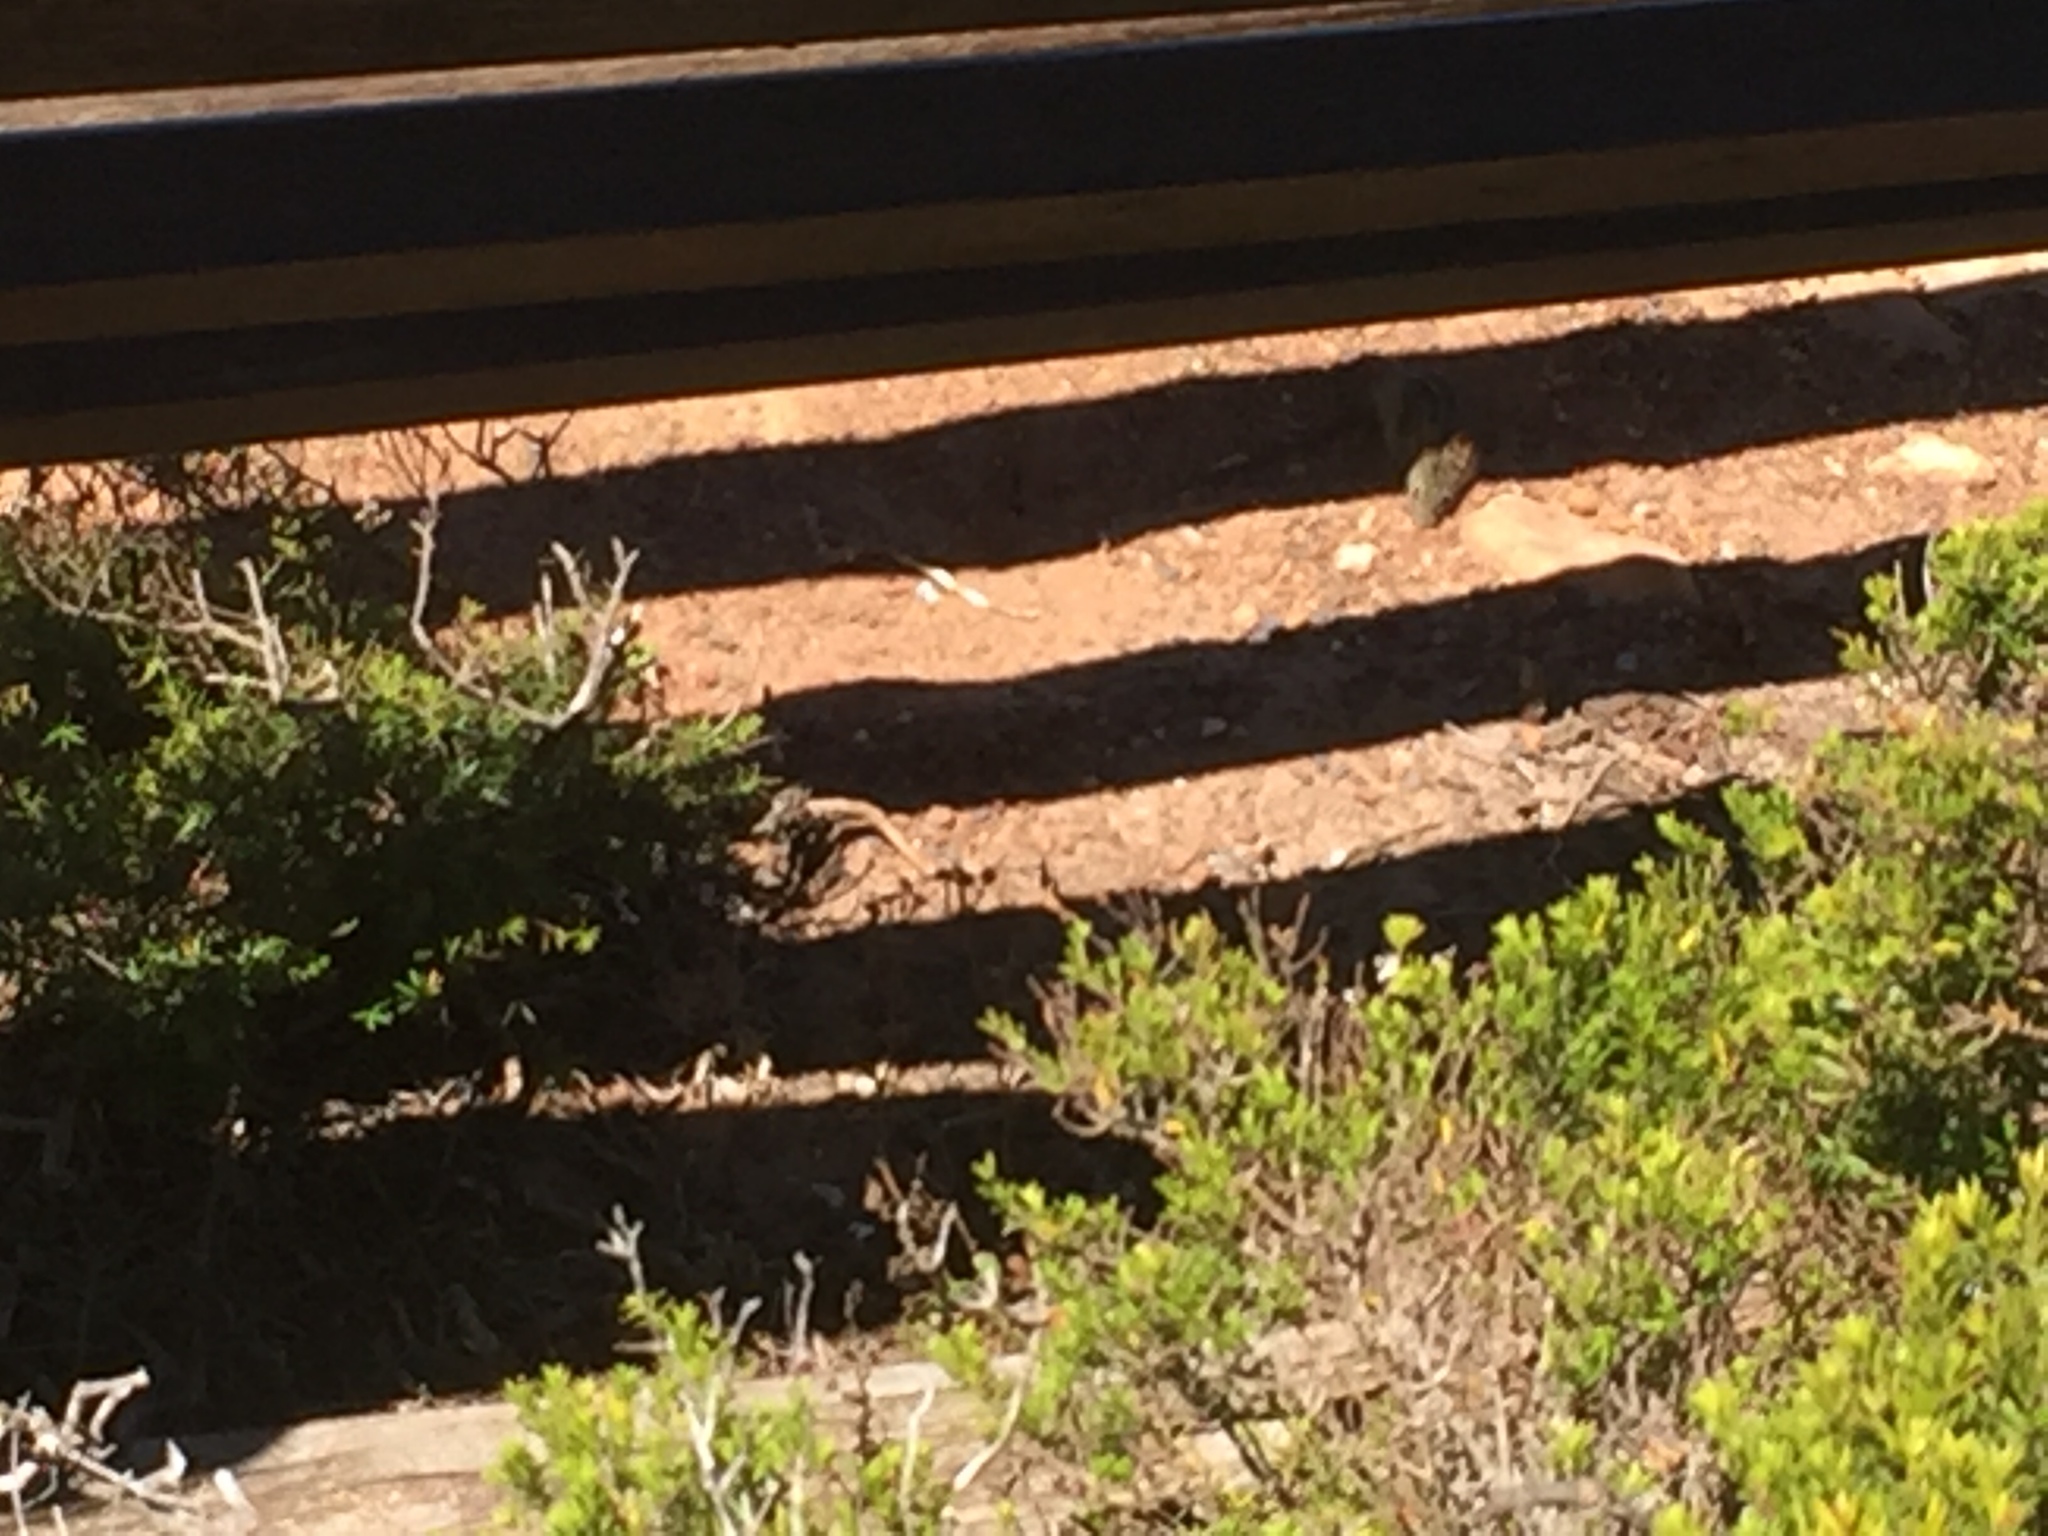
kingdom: Animalia
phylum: Chordata
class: Mammalia
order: Rodentia
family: Muridae
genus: Rhabdomys
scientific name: Rhabdomys pumilio
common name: Xeric four-striped grass rat
